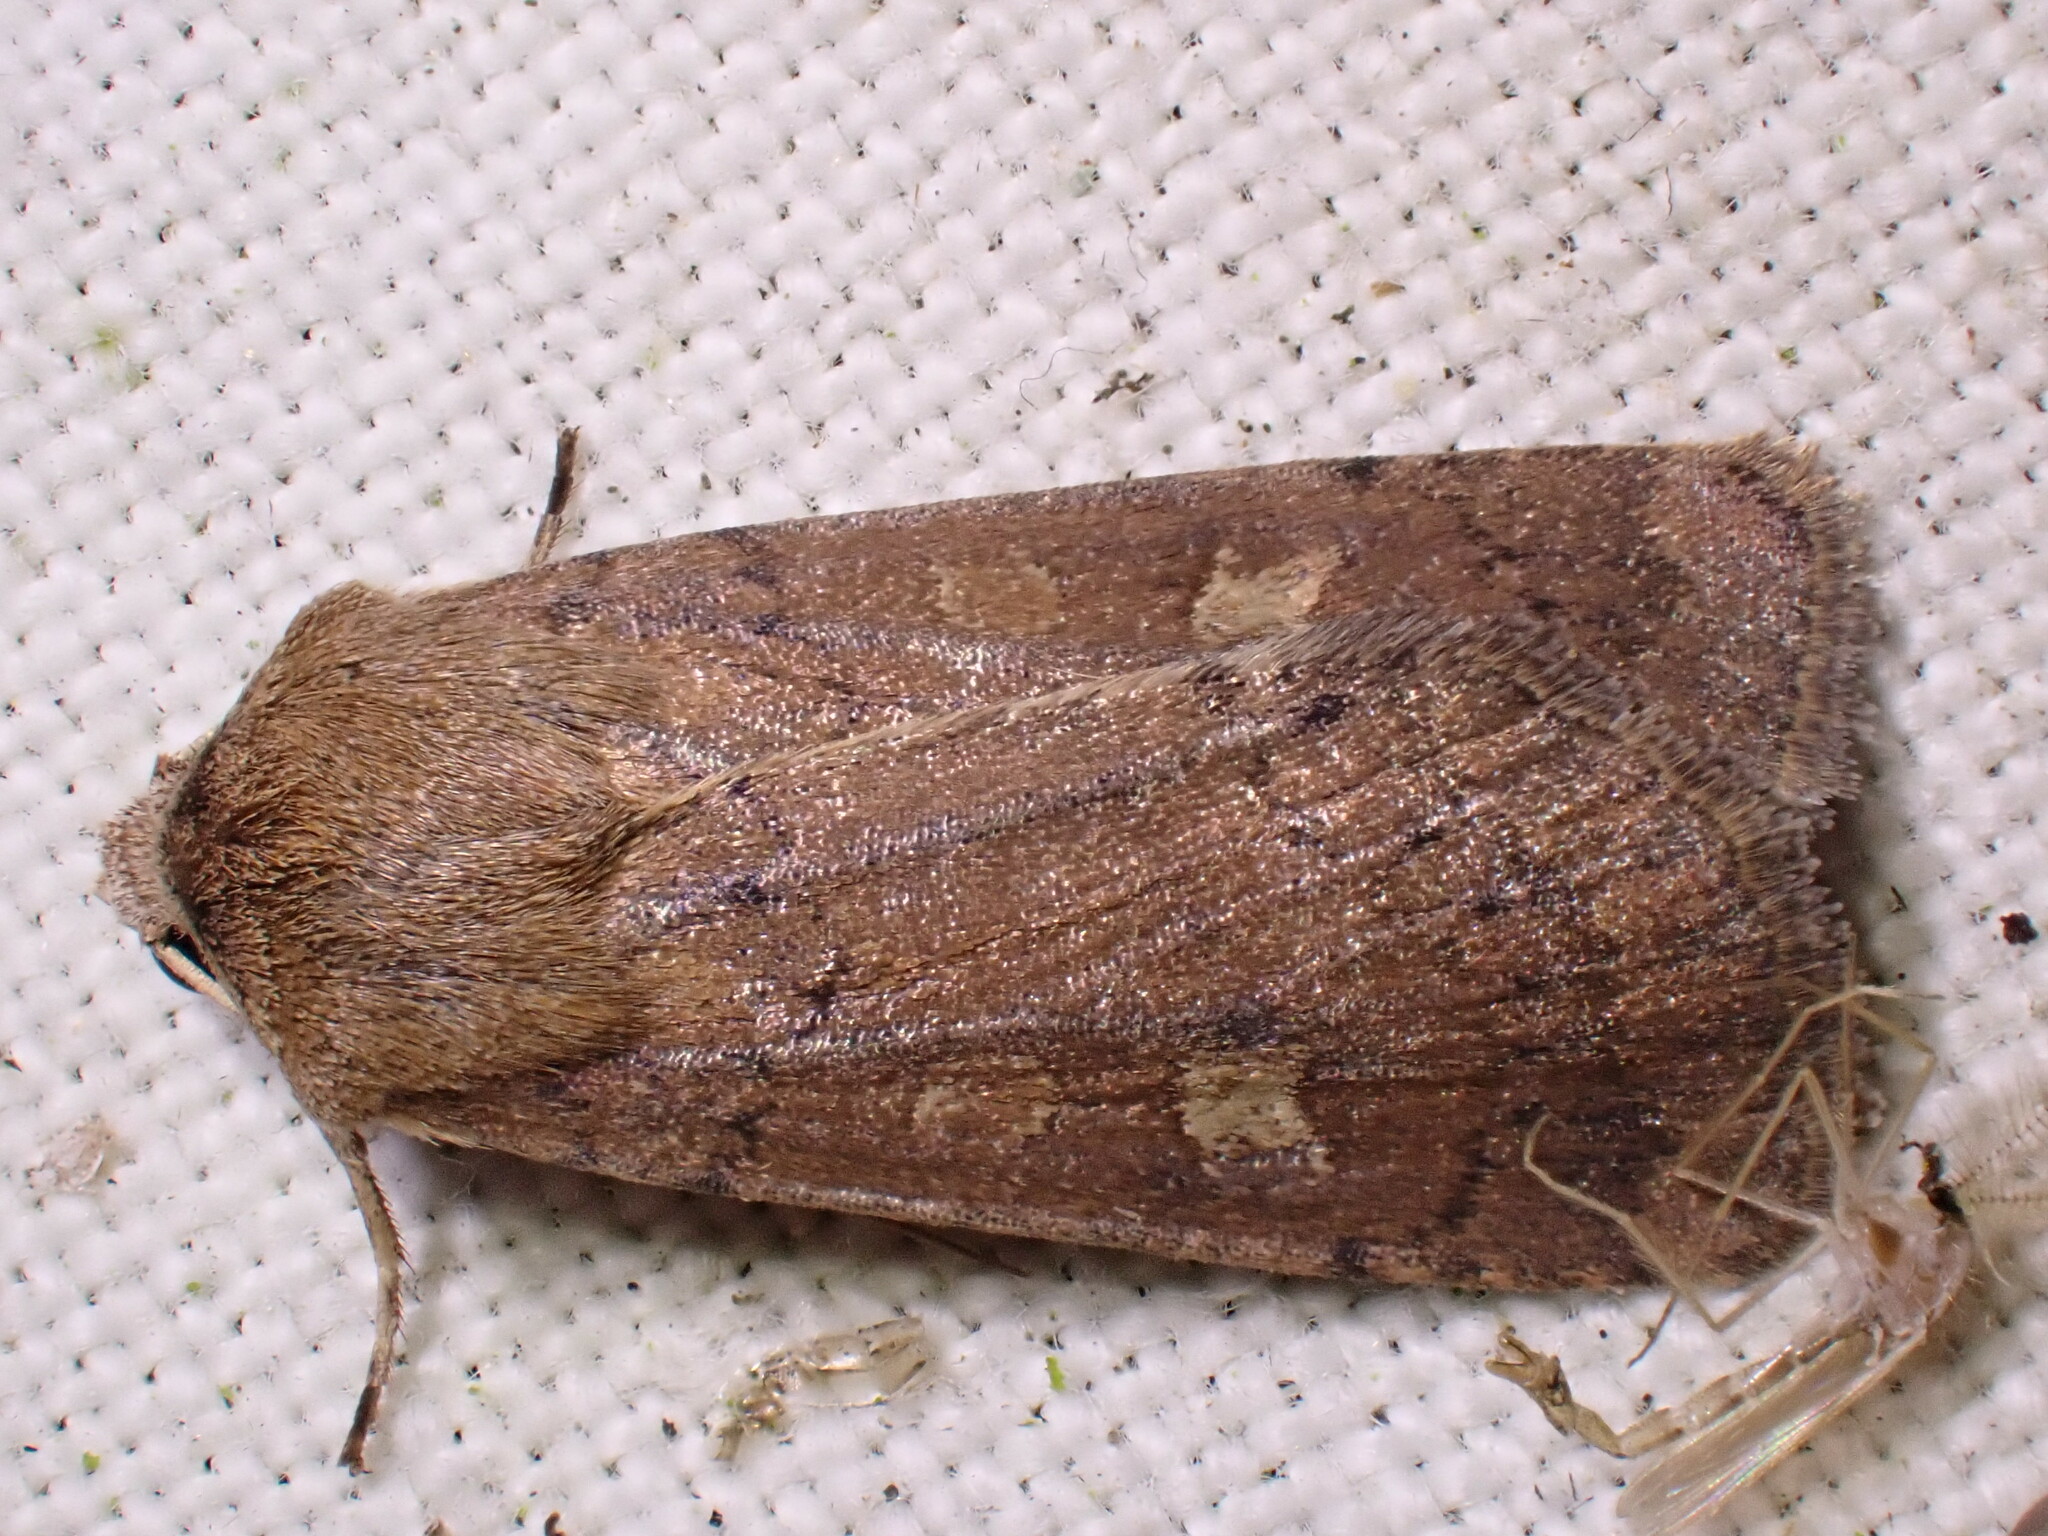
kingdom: Animalia
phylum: Arthropoda
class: Insecta
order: Lepidoptera
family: Noctuidae
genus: Xestia
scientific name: Xestia xanthographa
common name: Square-spot rustic
